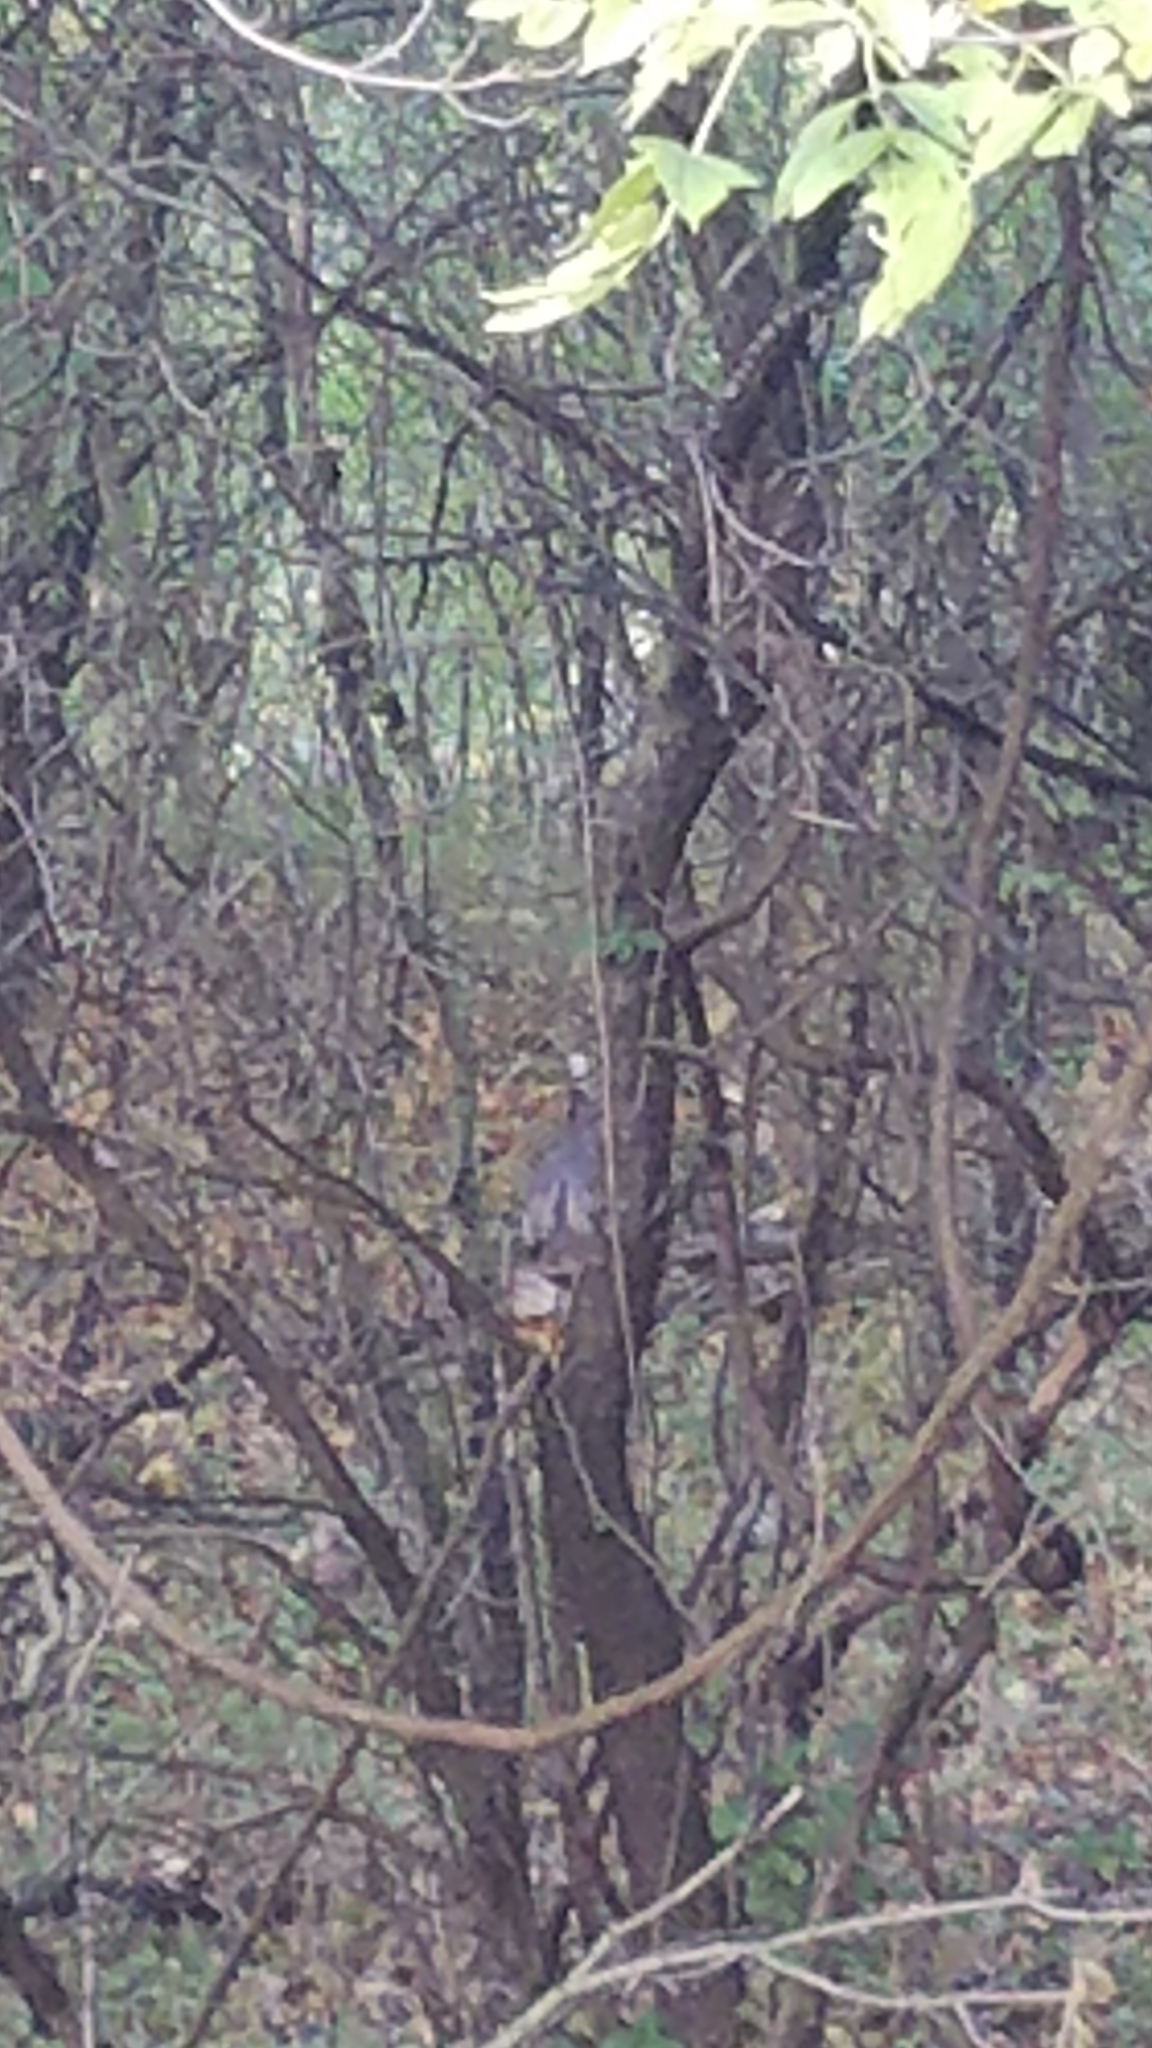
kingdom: Animalia
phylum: Chordata
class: Aves
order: Galliformes
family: Phasianidae
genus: Meleagris
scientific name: Meleagris gallopavo
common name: Wild turkey
